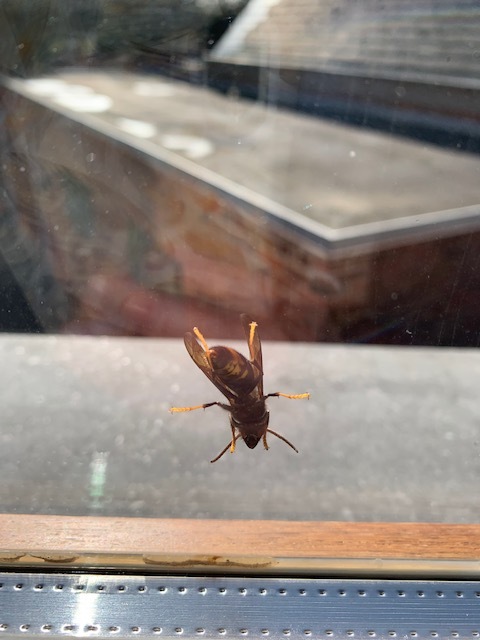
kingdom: Animalia
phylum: Arthropoda
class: Insecta
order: Hymenoptera
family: Vespidae
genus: Vespa
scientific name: Vespa velutina
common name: Asian hornet
